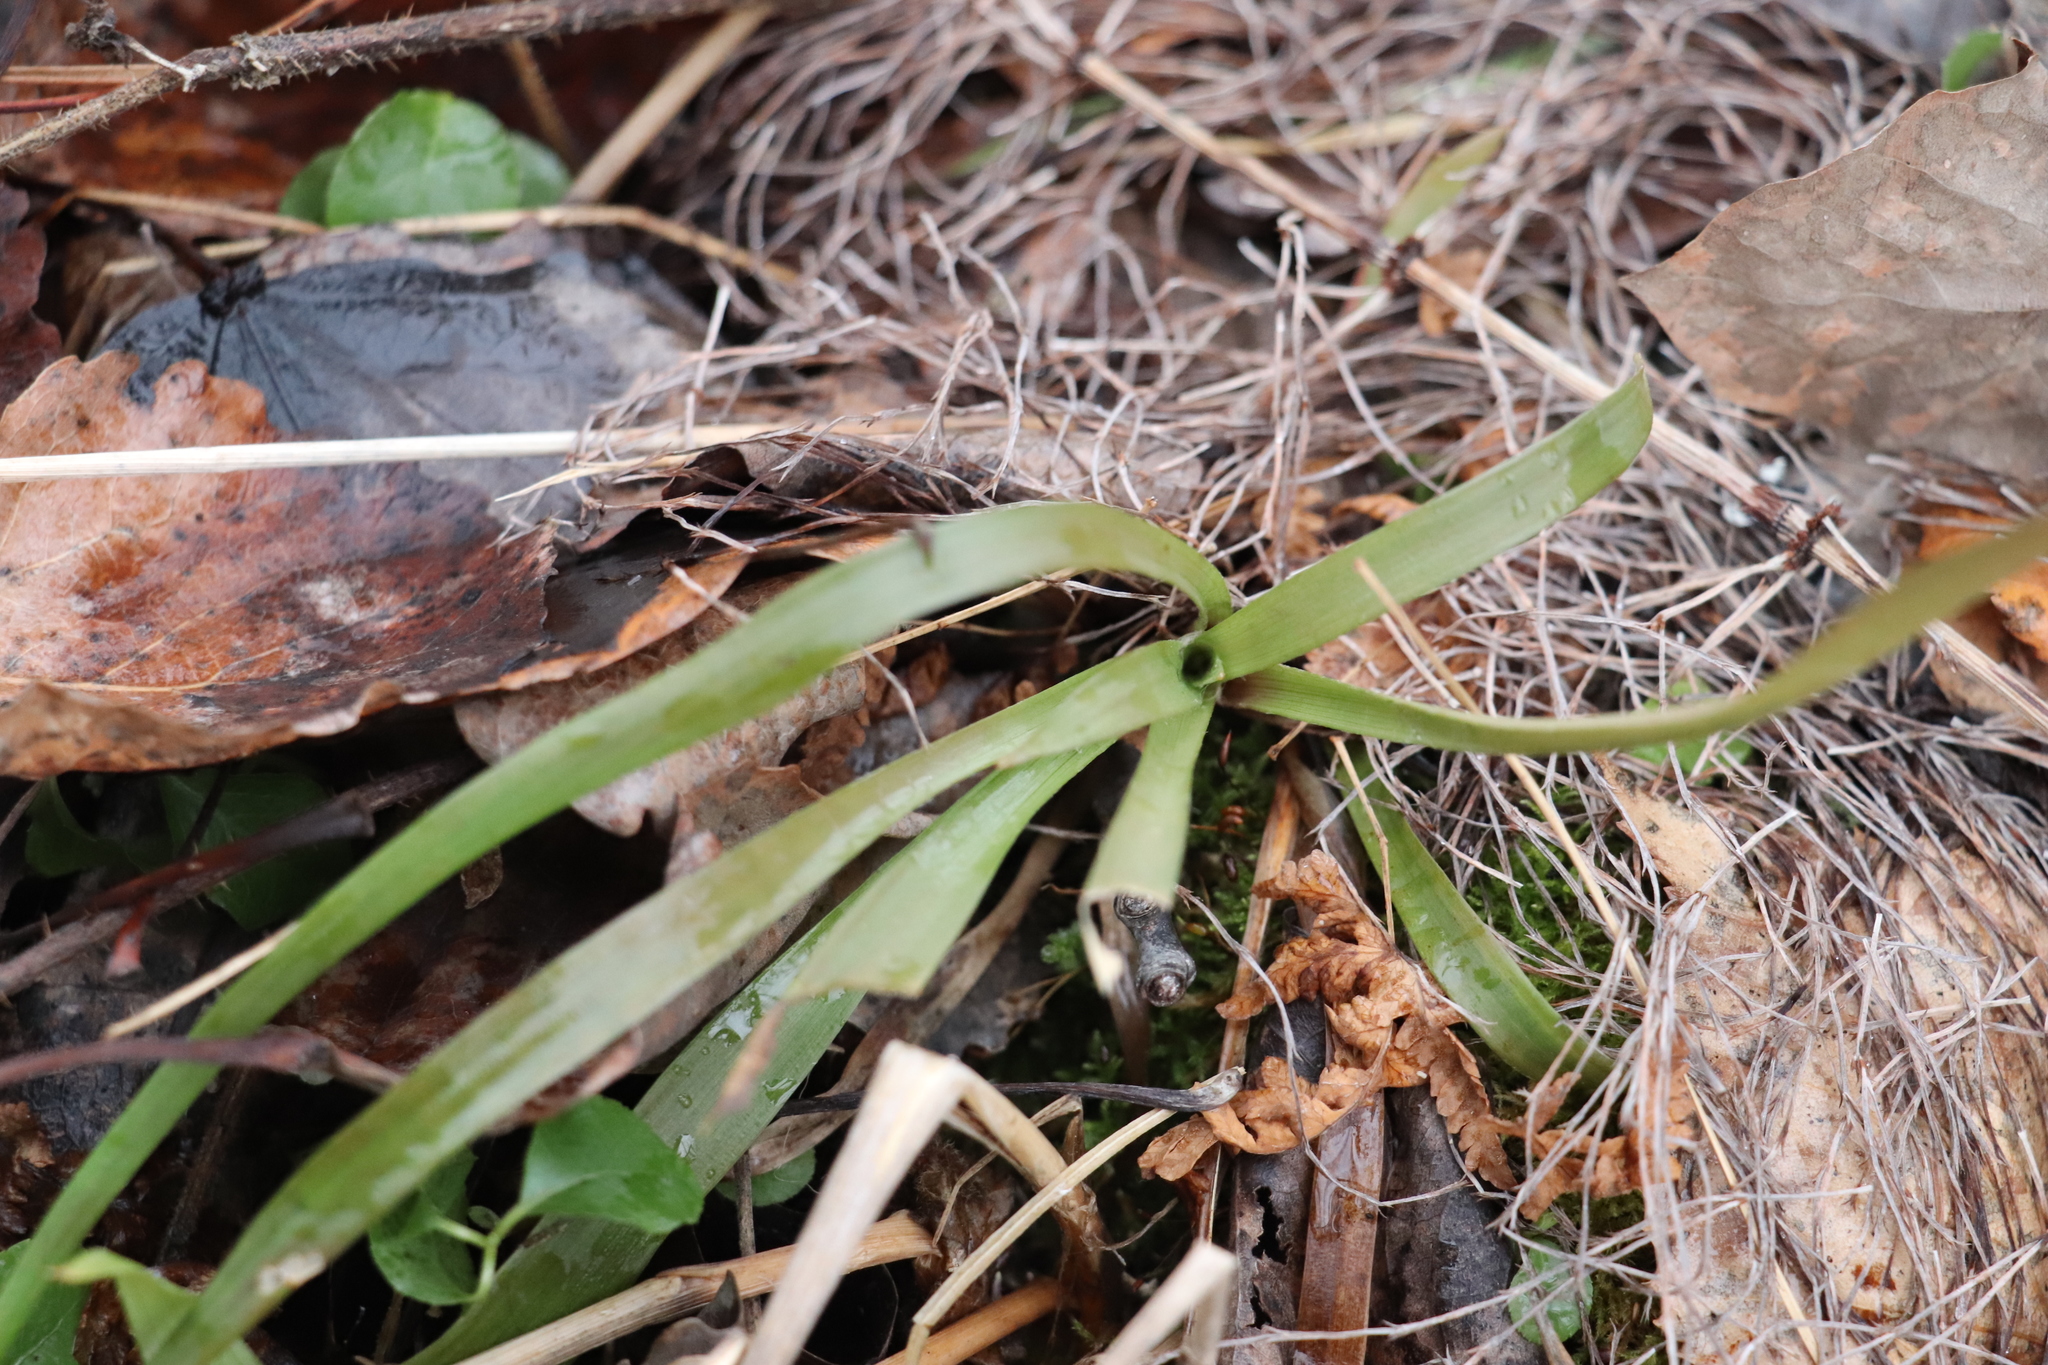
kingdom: Plantae
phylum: Tracheophyta
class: Liliopsida
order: Poales
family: Juncaceae
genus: Luzula
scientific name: Luzula pilosa
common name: Hairy wood-rush
